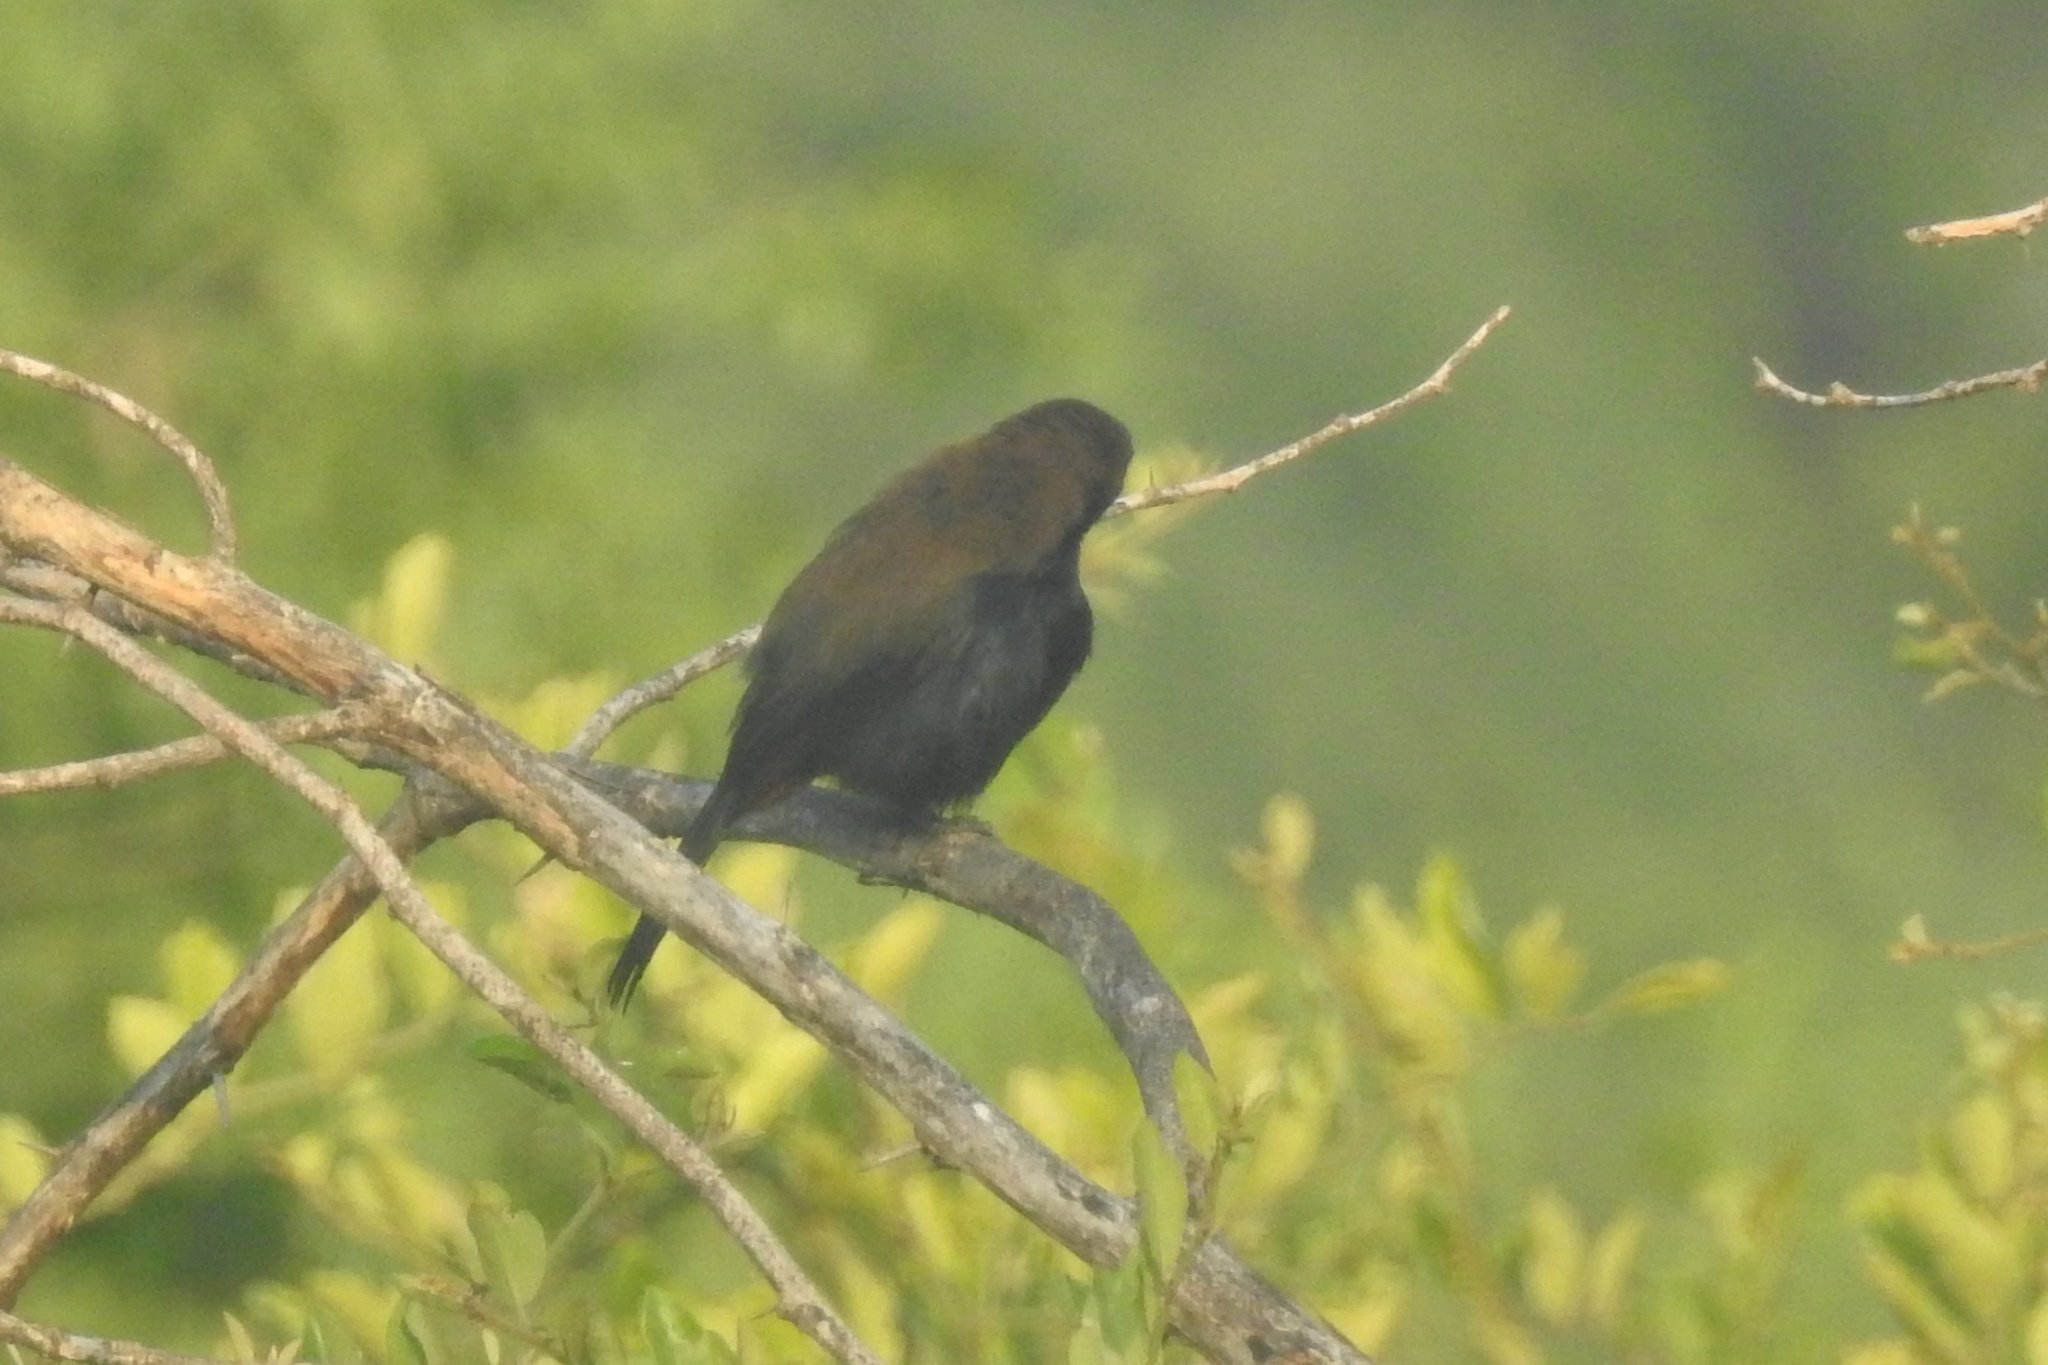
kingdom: Animalia
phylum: Chordata
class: Aves
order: Passeriformes
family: Muscicapidae
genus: Saxicoloides
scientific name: Saxicoloides fulicatus
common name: Indian robin
